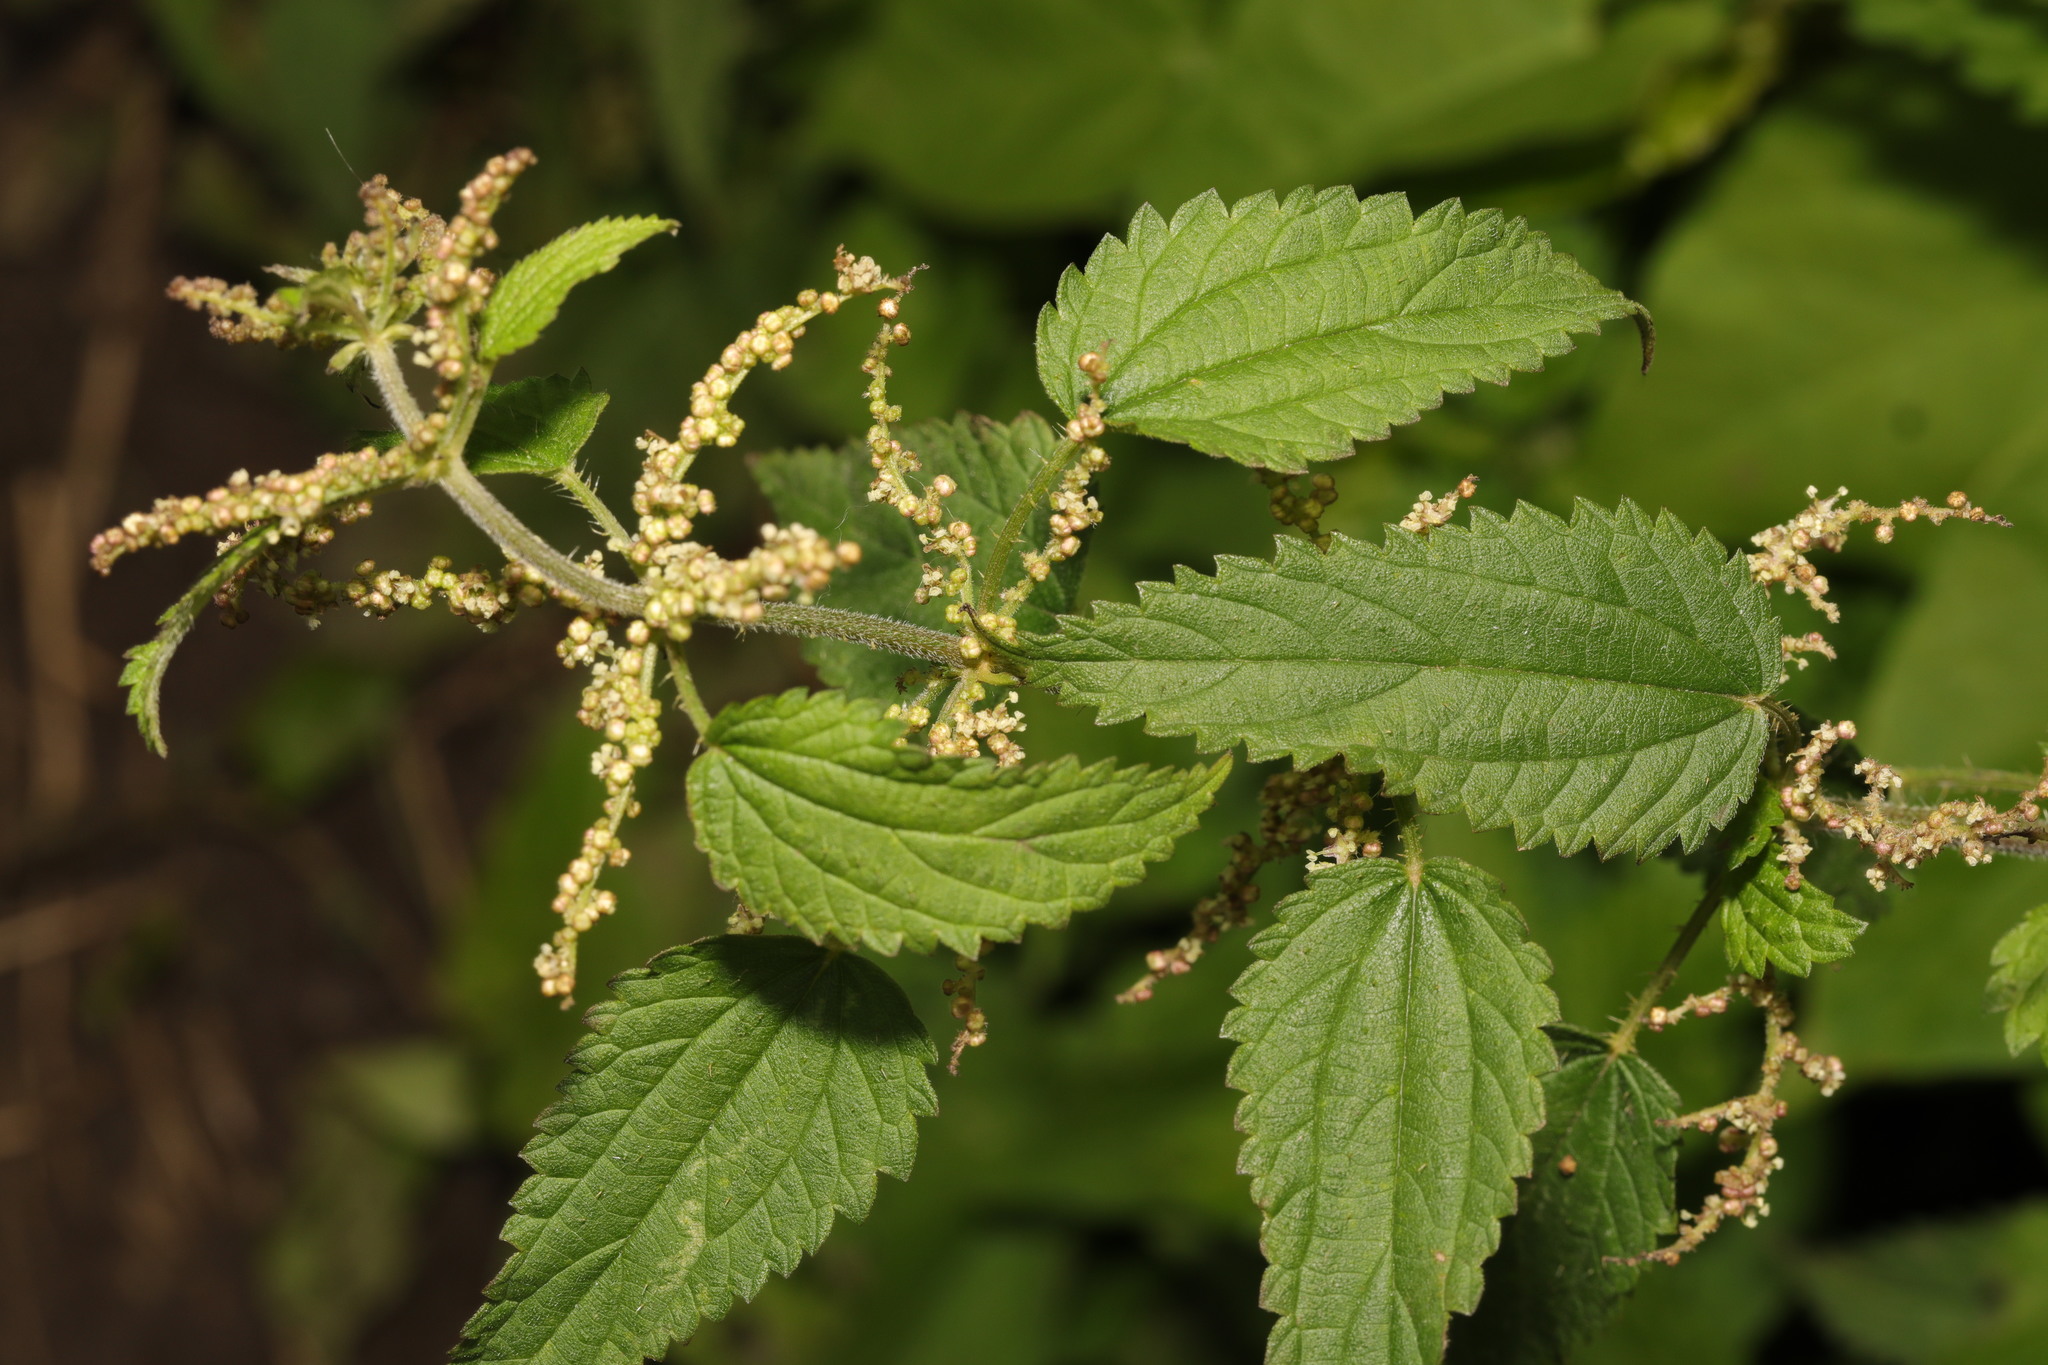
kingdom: Plantae
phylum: Tracheophyta
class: Magnoliopsida
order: Rosales
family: Urticaceae
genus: Urtica
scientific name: Urtica dioica
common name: Common nettle
